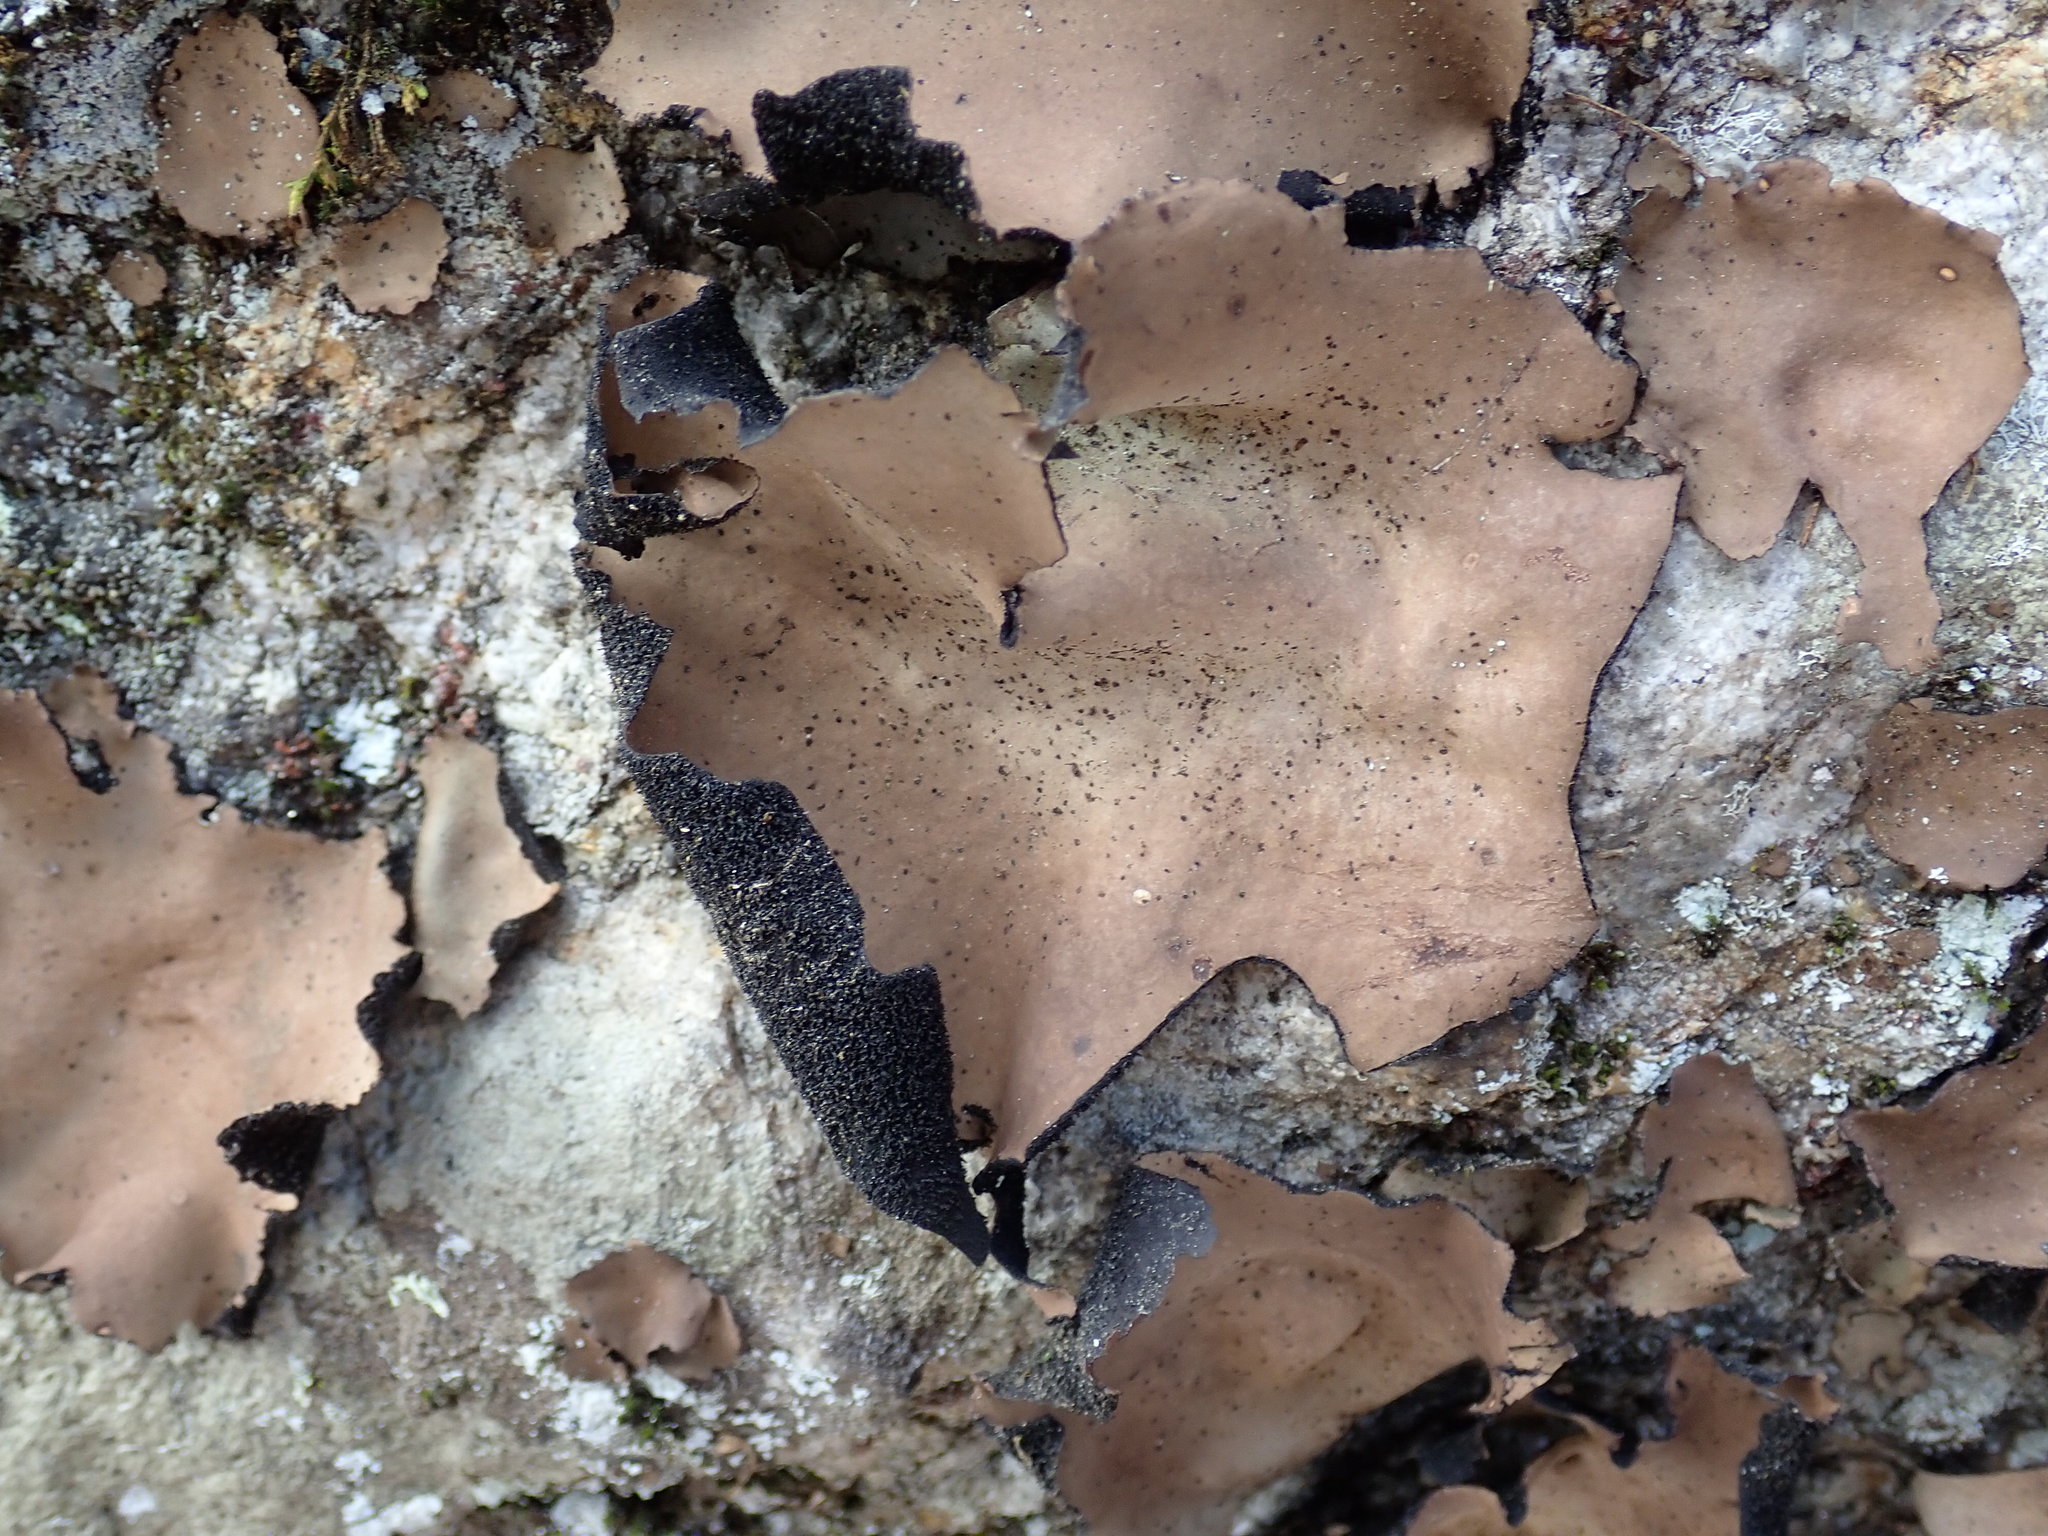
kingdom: Fungi
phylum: Ascomycota
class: Lecanoromycetes
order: Umbilicariales
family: Umbilicariaceae
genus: Umbilicaria
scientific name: Umbilicaria mammulata
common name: Smooth rock tripe
